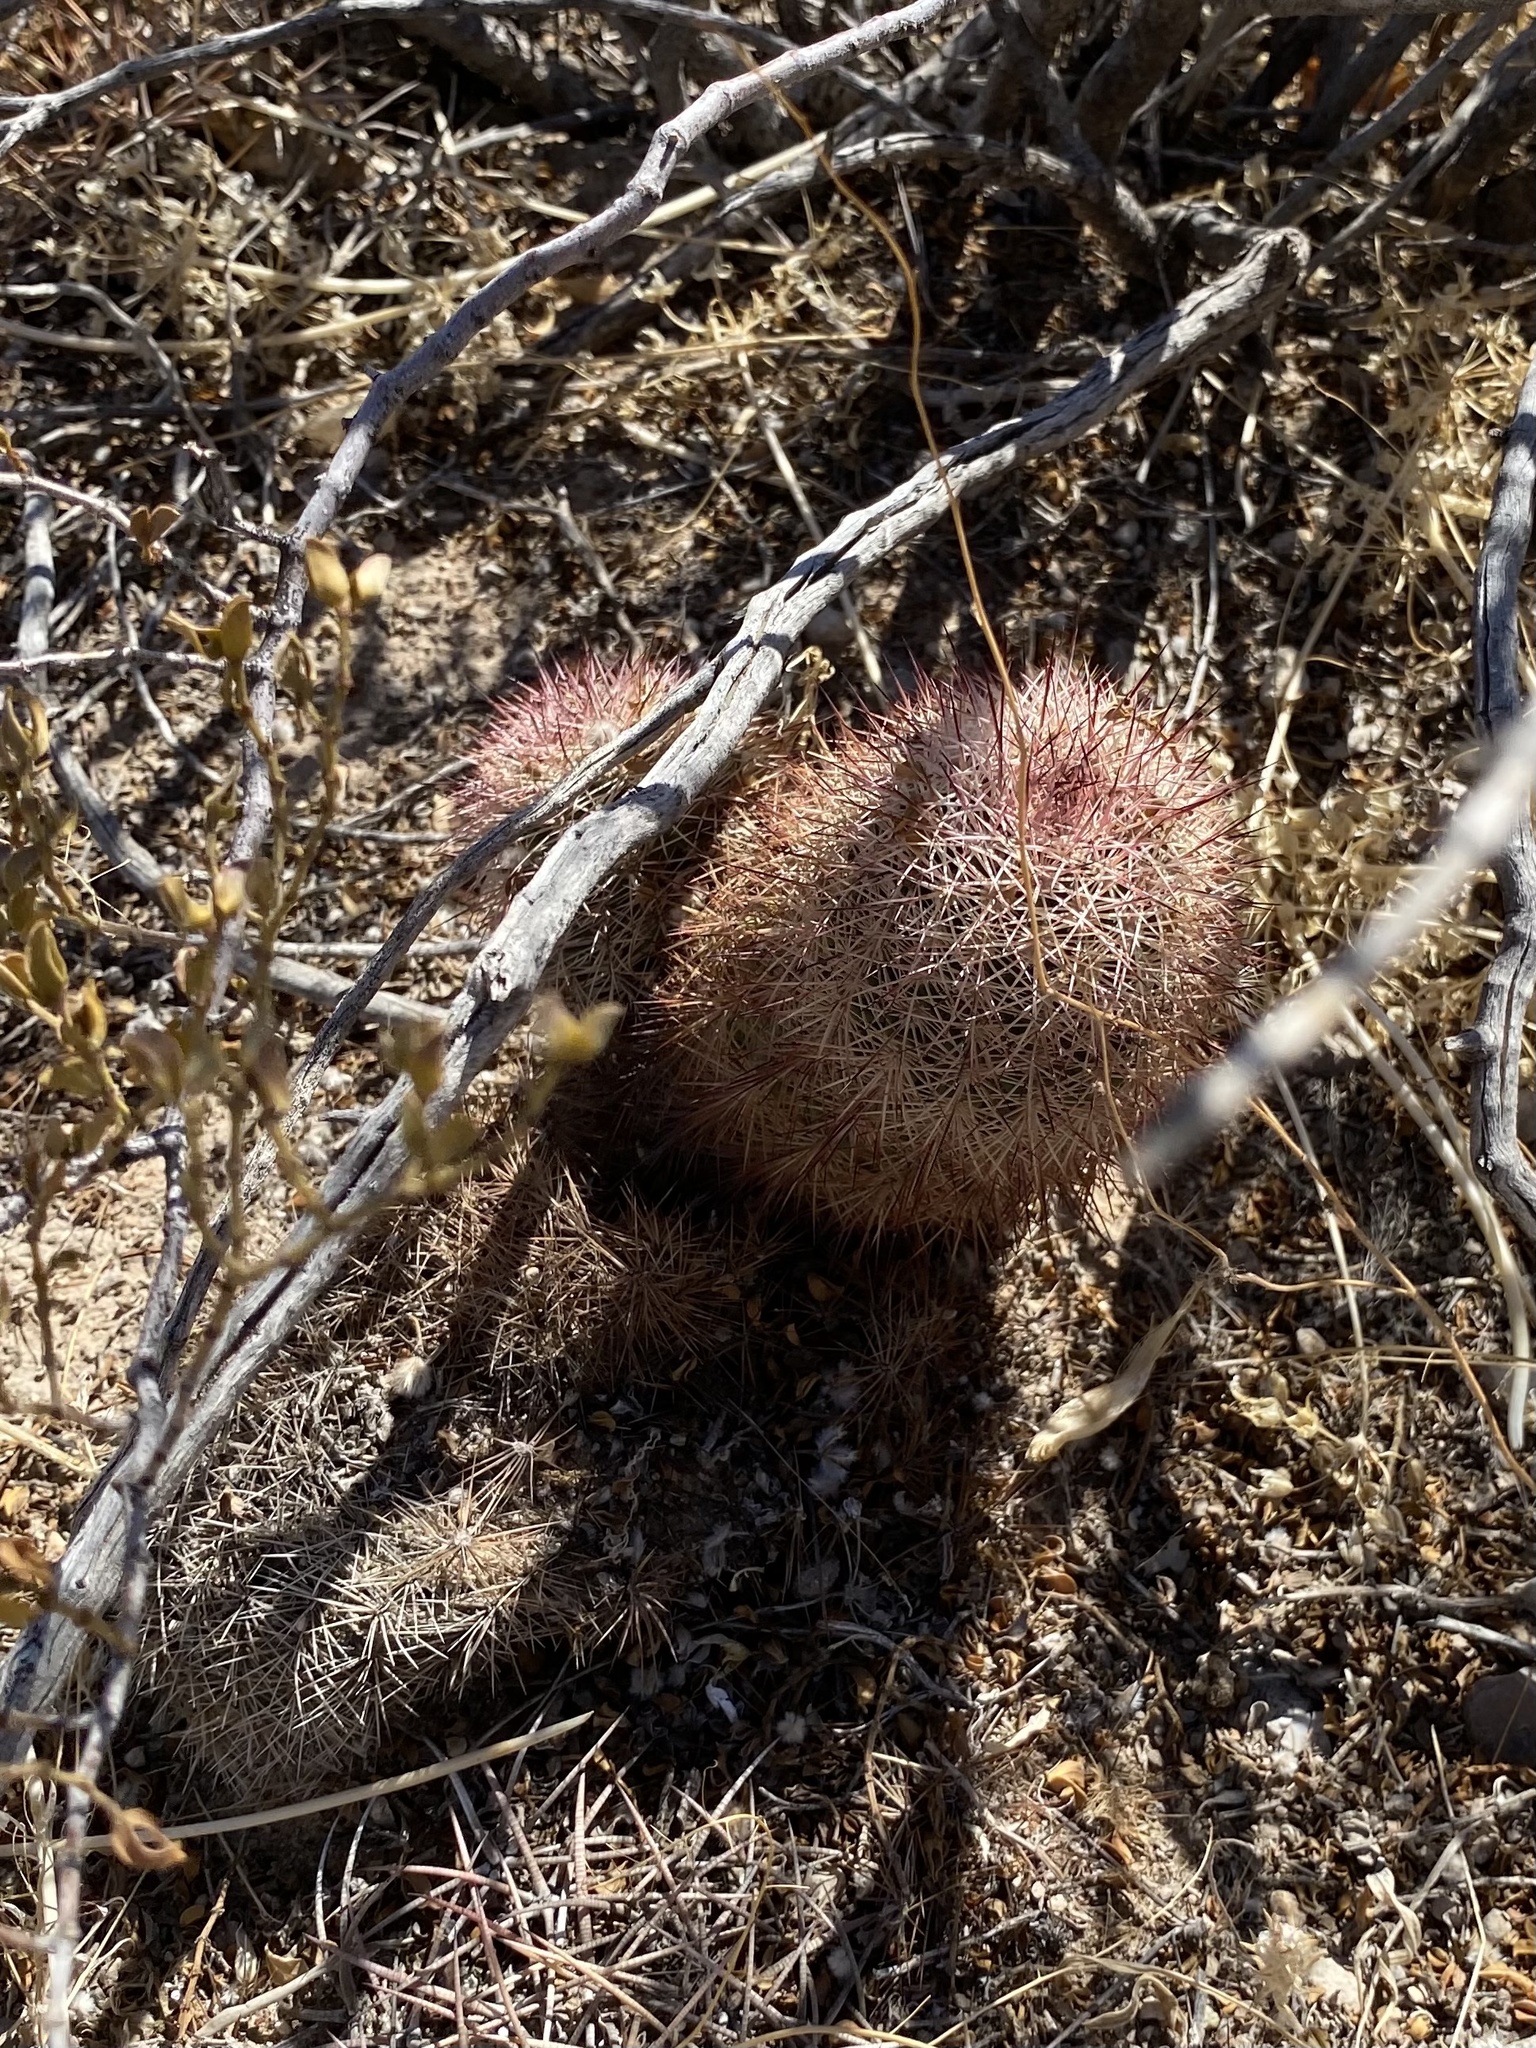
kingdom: Plantae
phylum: Tracheophyta
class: Magnoliopsida
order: Caryophyllales
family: Cactaceae
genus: Echinocereus
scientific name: Echinocereus dasyacanthus
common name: Spiny hedgehog cactus
